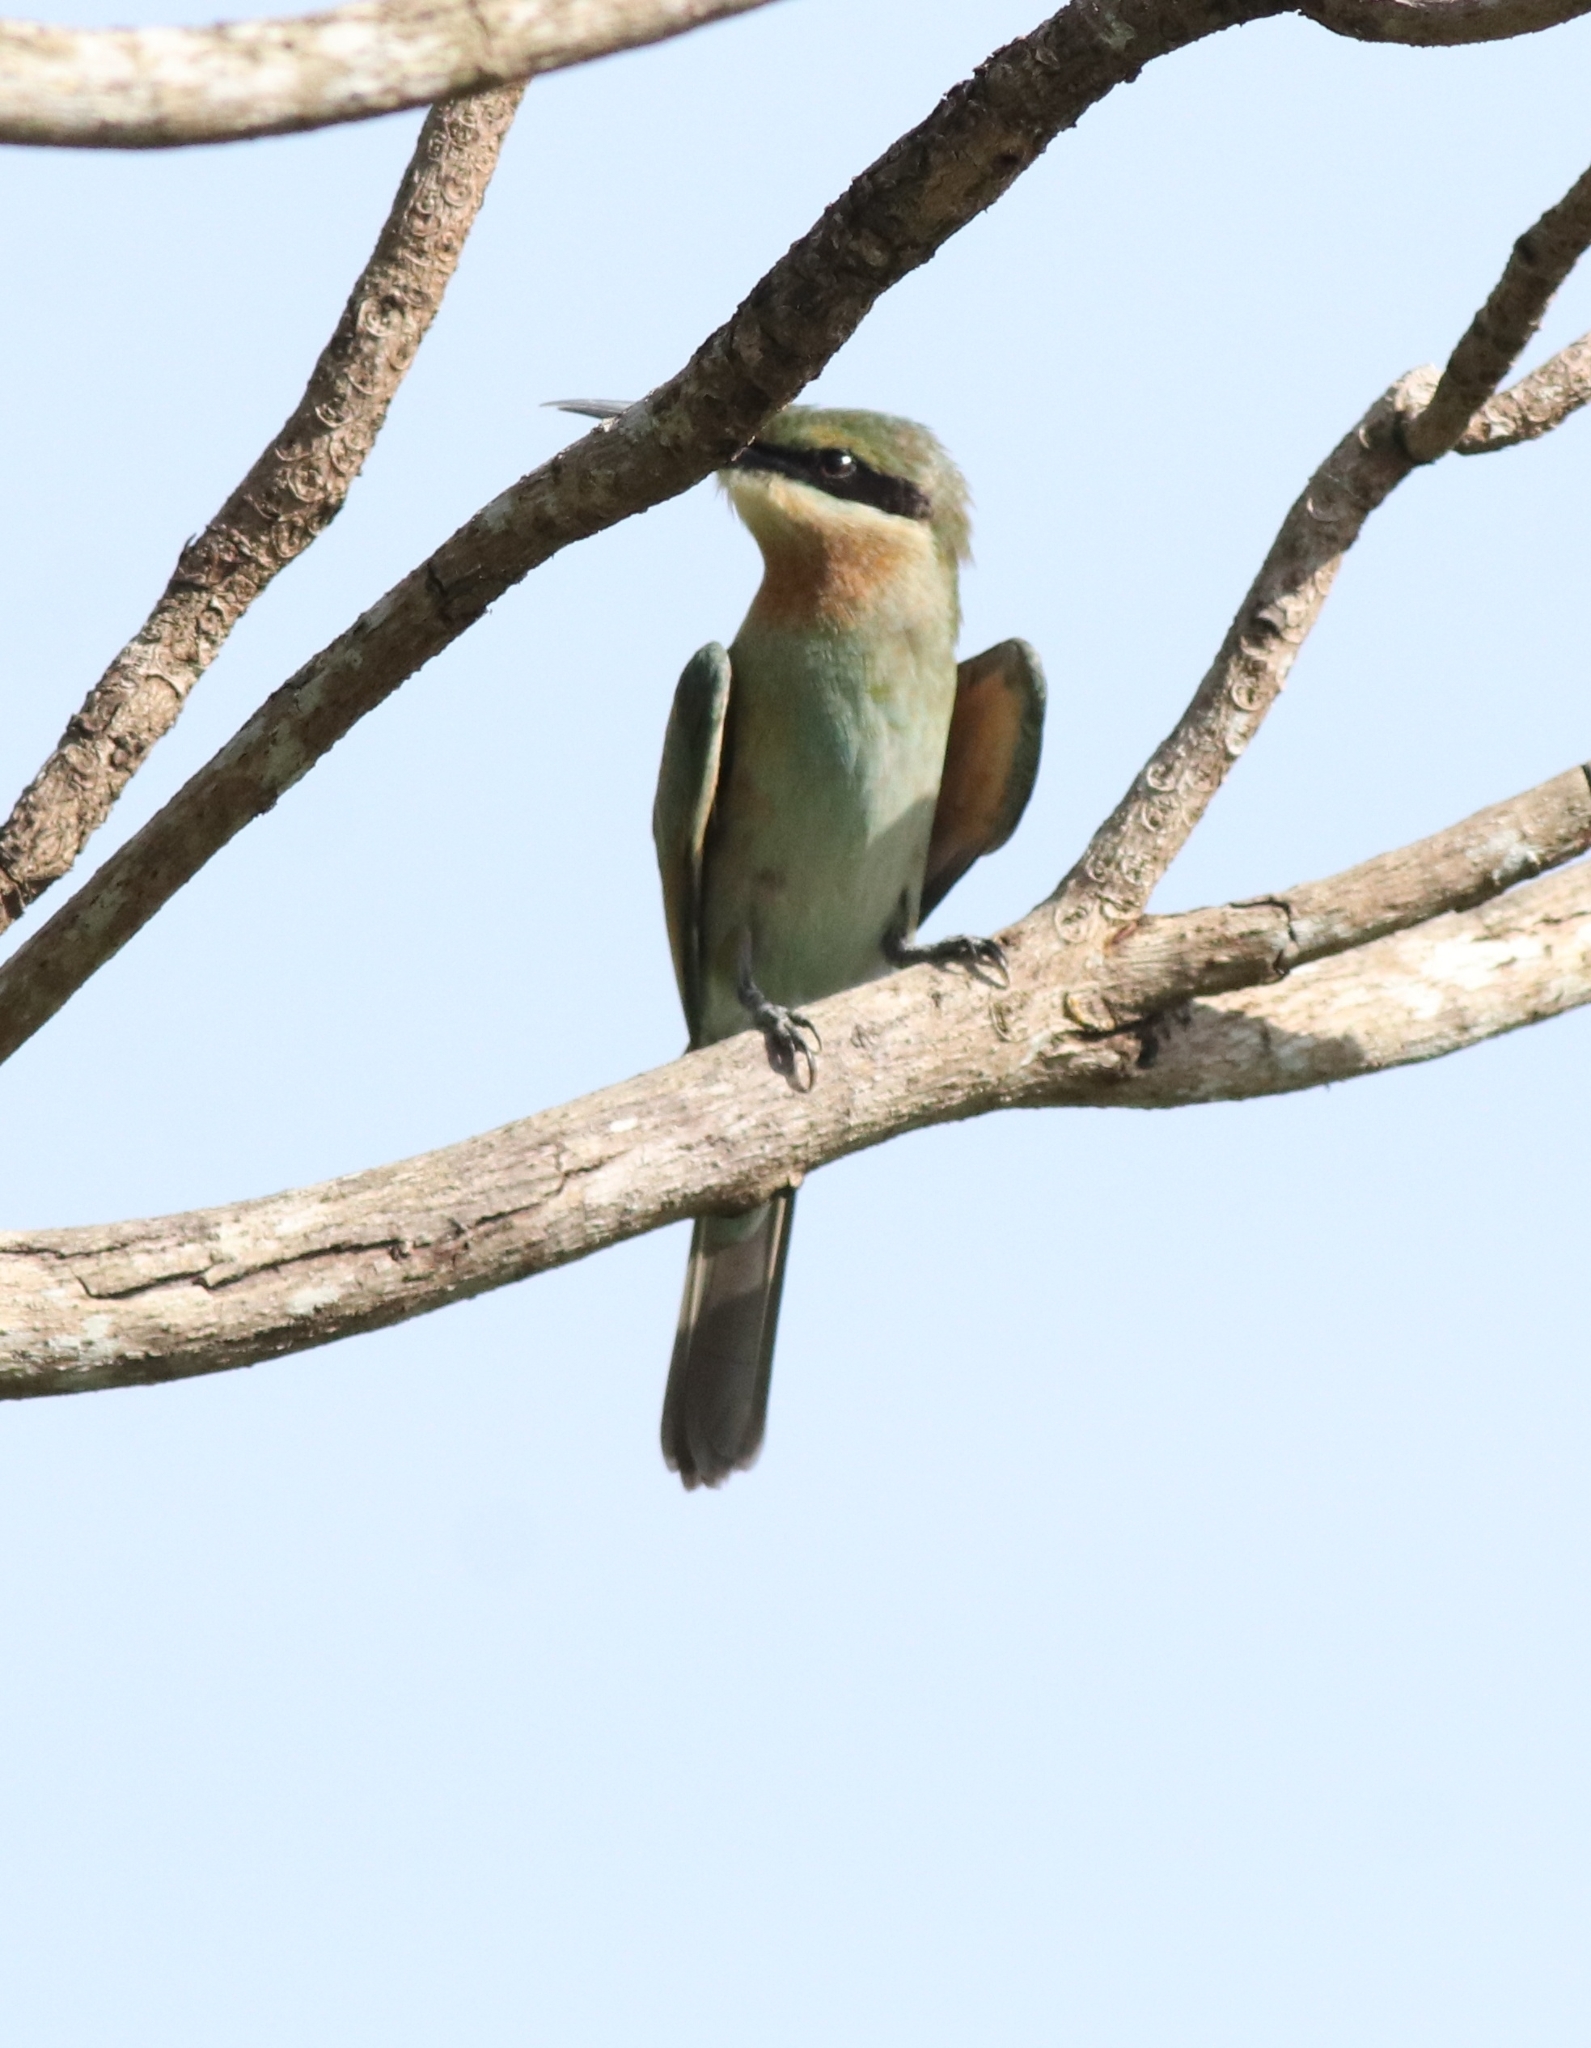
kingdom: Animalia
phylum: Chordata
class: Aves
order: Coraciiformes
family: Meropidae
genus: Merops
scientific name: Merops philippinus
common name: Blue-tailed bee-eater
